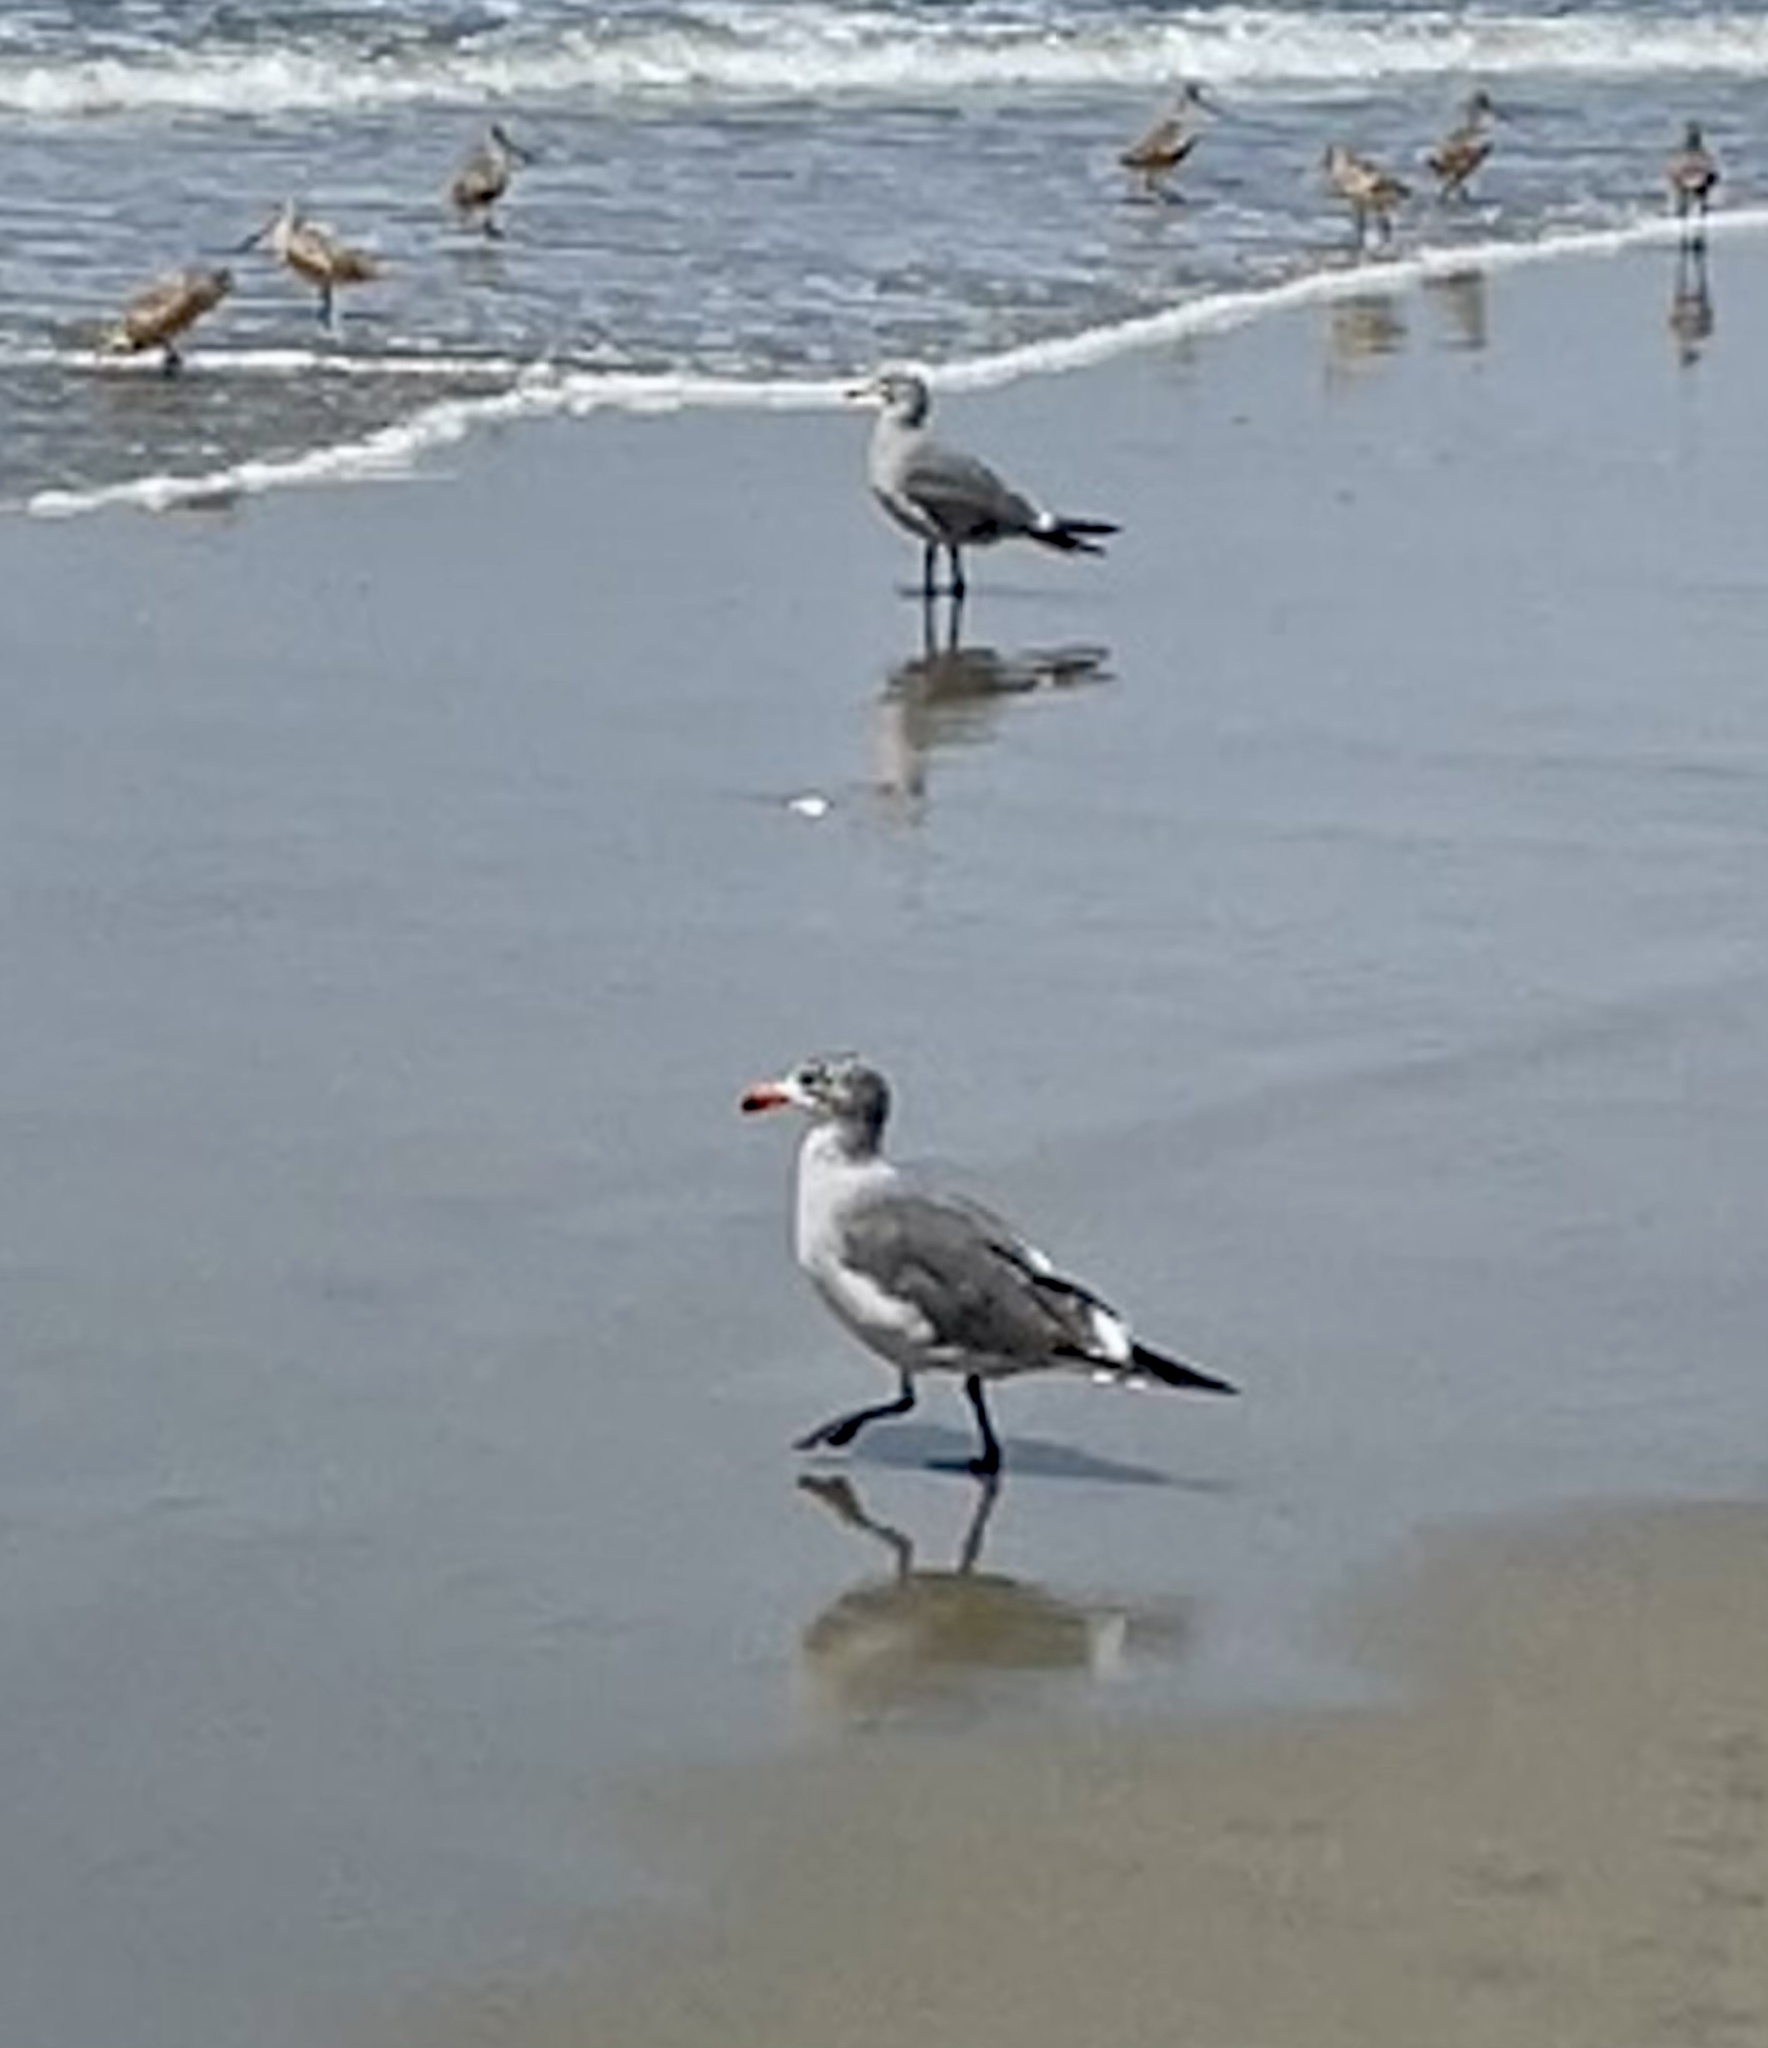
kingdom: Animalia
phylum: Chordata
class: Aves
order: Charadriiformes
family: Laridae
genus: Larus
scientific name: Larus heermanni
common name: Heermann's gull
